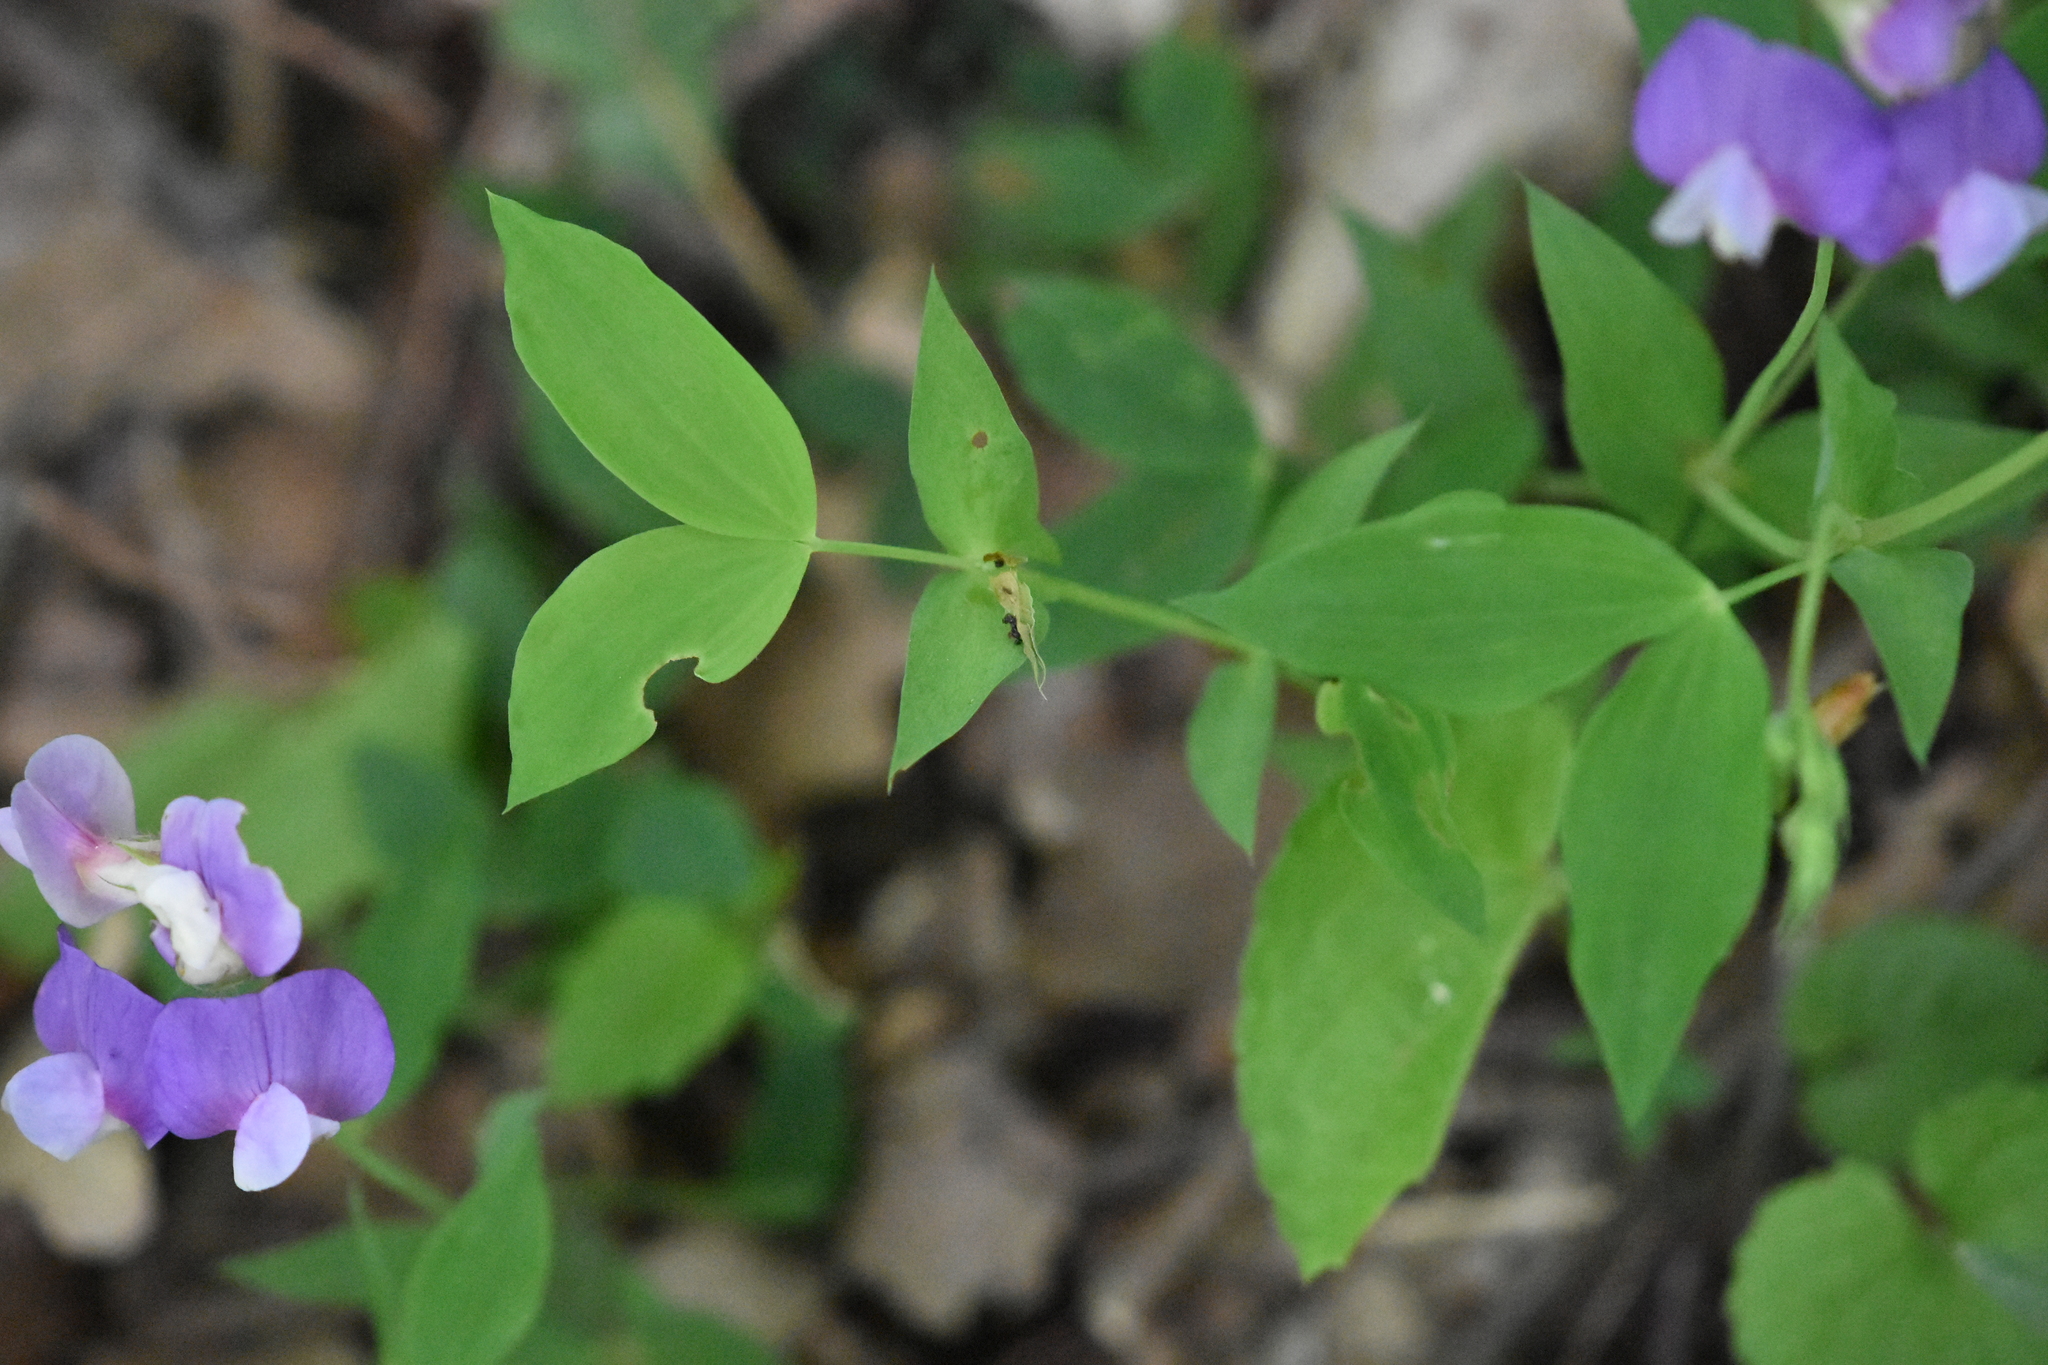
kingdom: Plantae
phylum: Tracheophyta
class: Magnoliopsida
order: Fabales
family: Fabaceae
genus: Lathyrus
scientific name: Lathyrus laxiflorus
